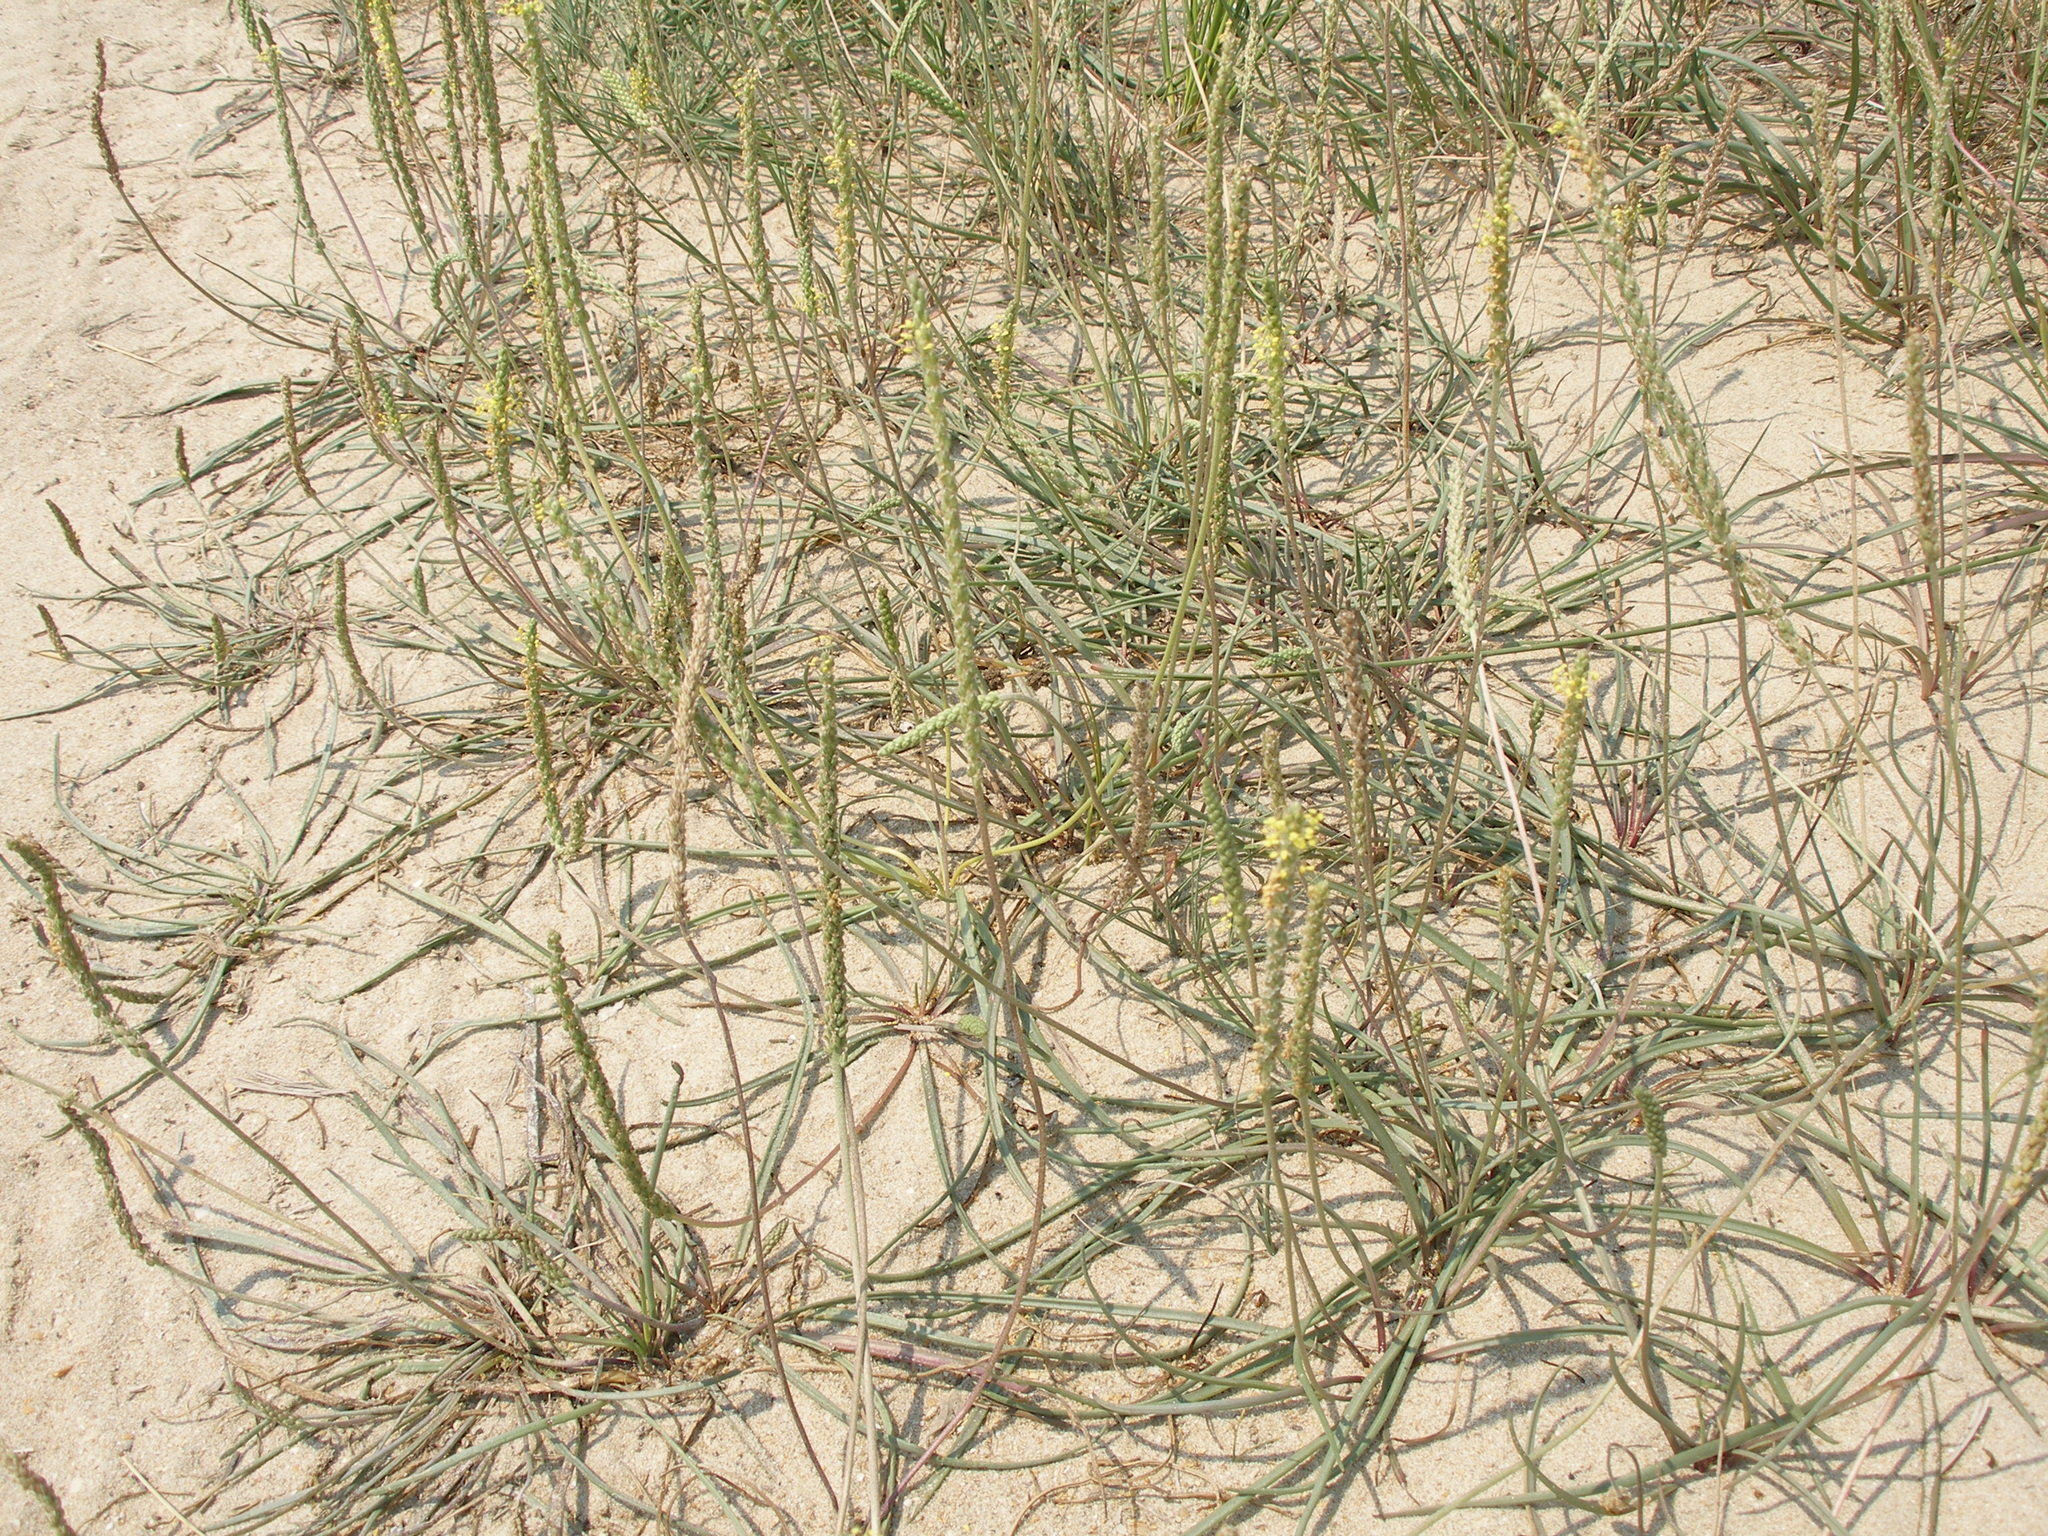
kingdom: Plantae
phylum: Tracheophyta
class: Magnoliopsida
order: Lamiales
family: Plantaginaceae
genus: Plantago
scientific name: Plantago salsa
